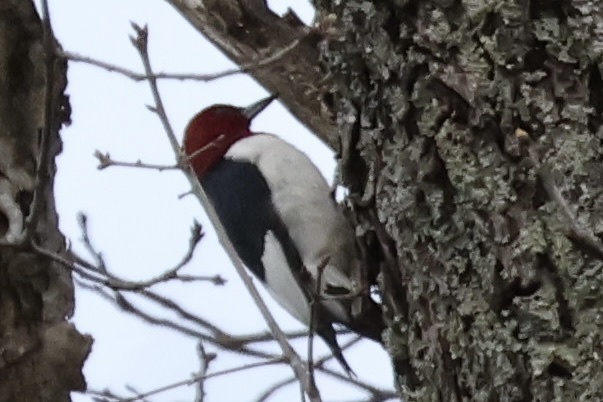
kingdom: Animalia
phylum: Chordata
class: Aves
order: Piciformes
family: Picidae
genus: Melanerpes
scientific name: Melanerpes erythrocephalus
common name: Red-headed woodpecker
